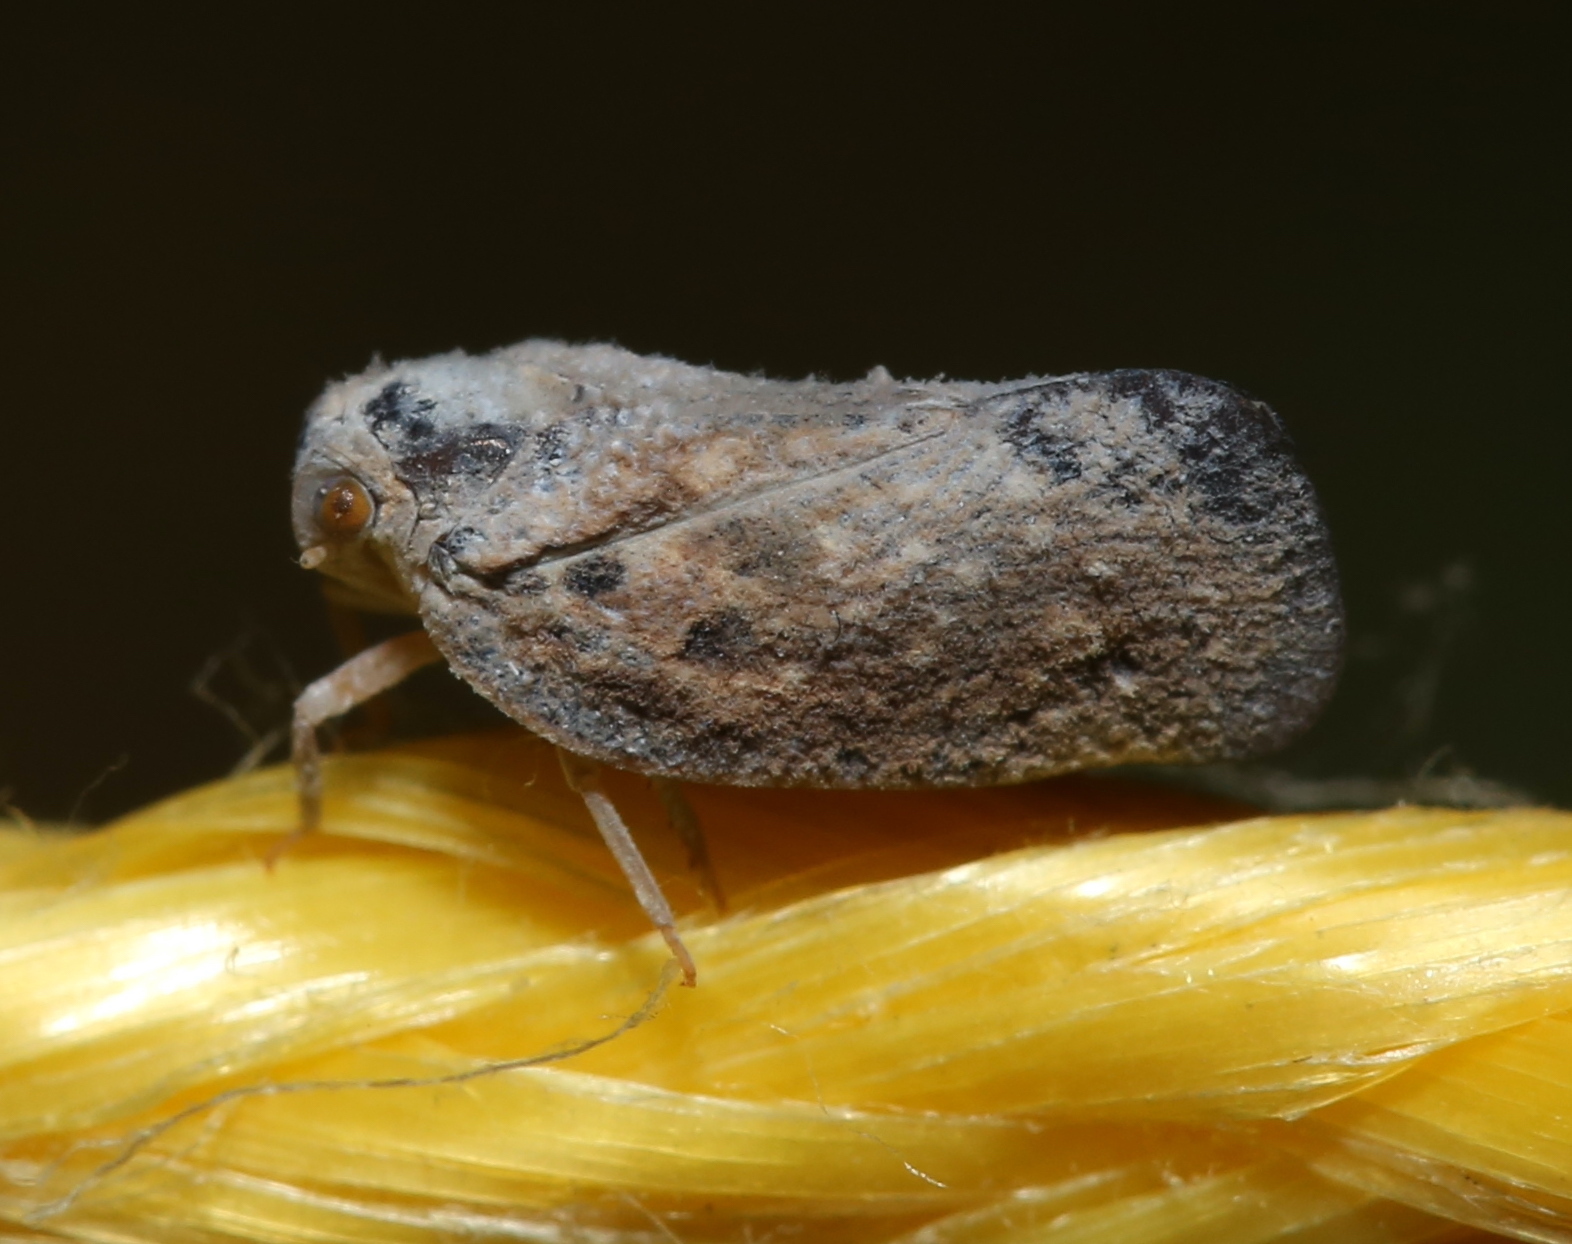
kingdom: Animalia
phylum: Arthropoda
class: Insecta
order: Hemiptera
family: Flatidae
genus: Metcalfa
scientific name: Metcalfa pruinosa
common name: Citrus flatid planthopper
